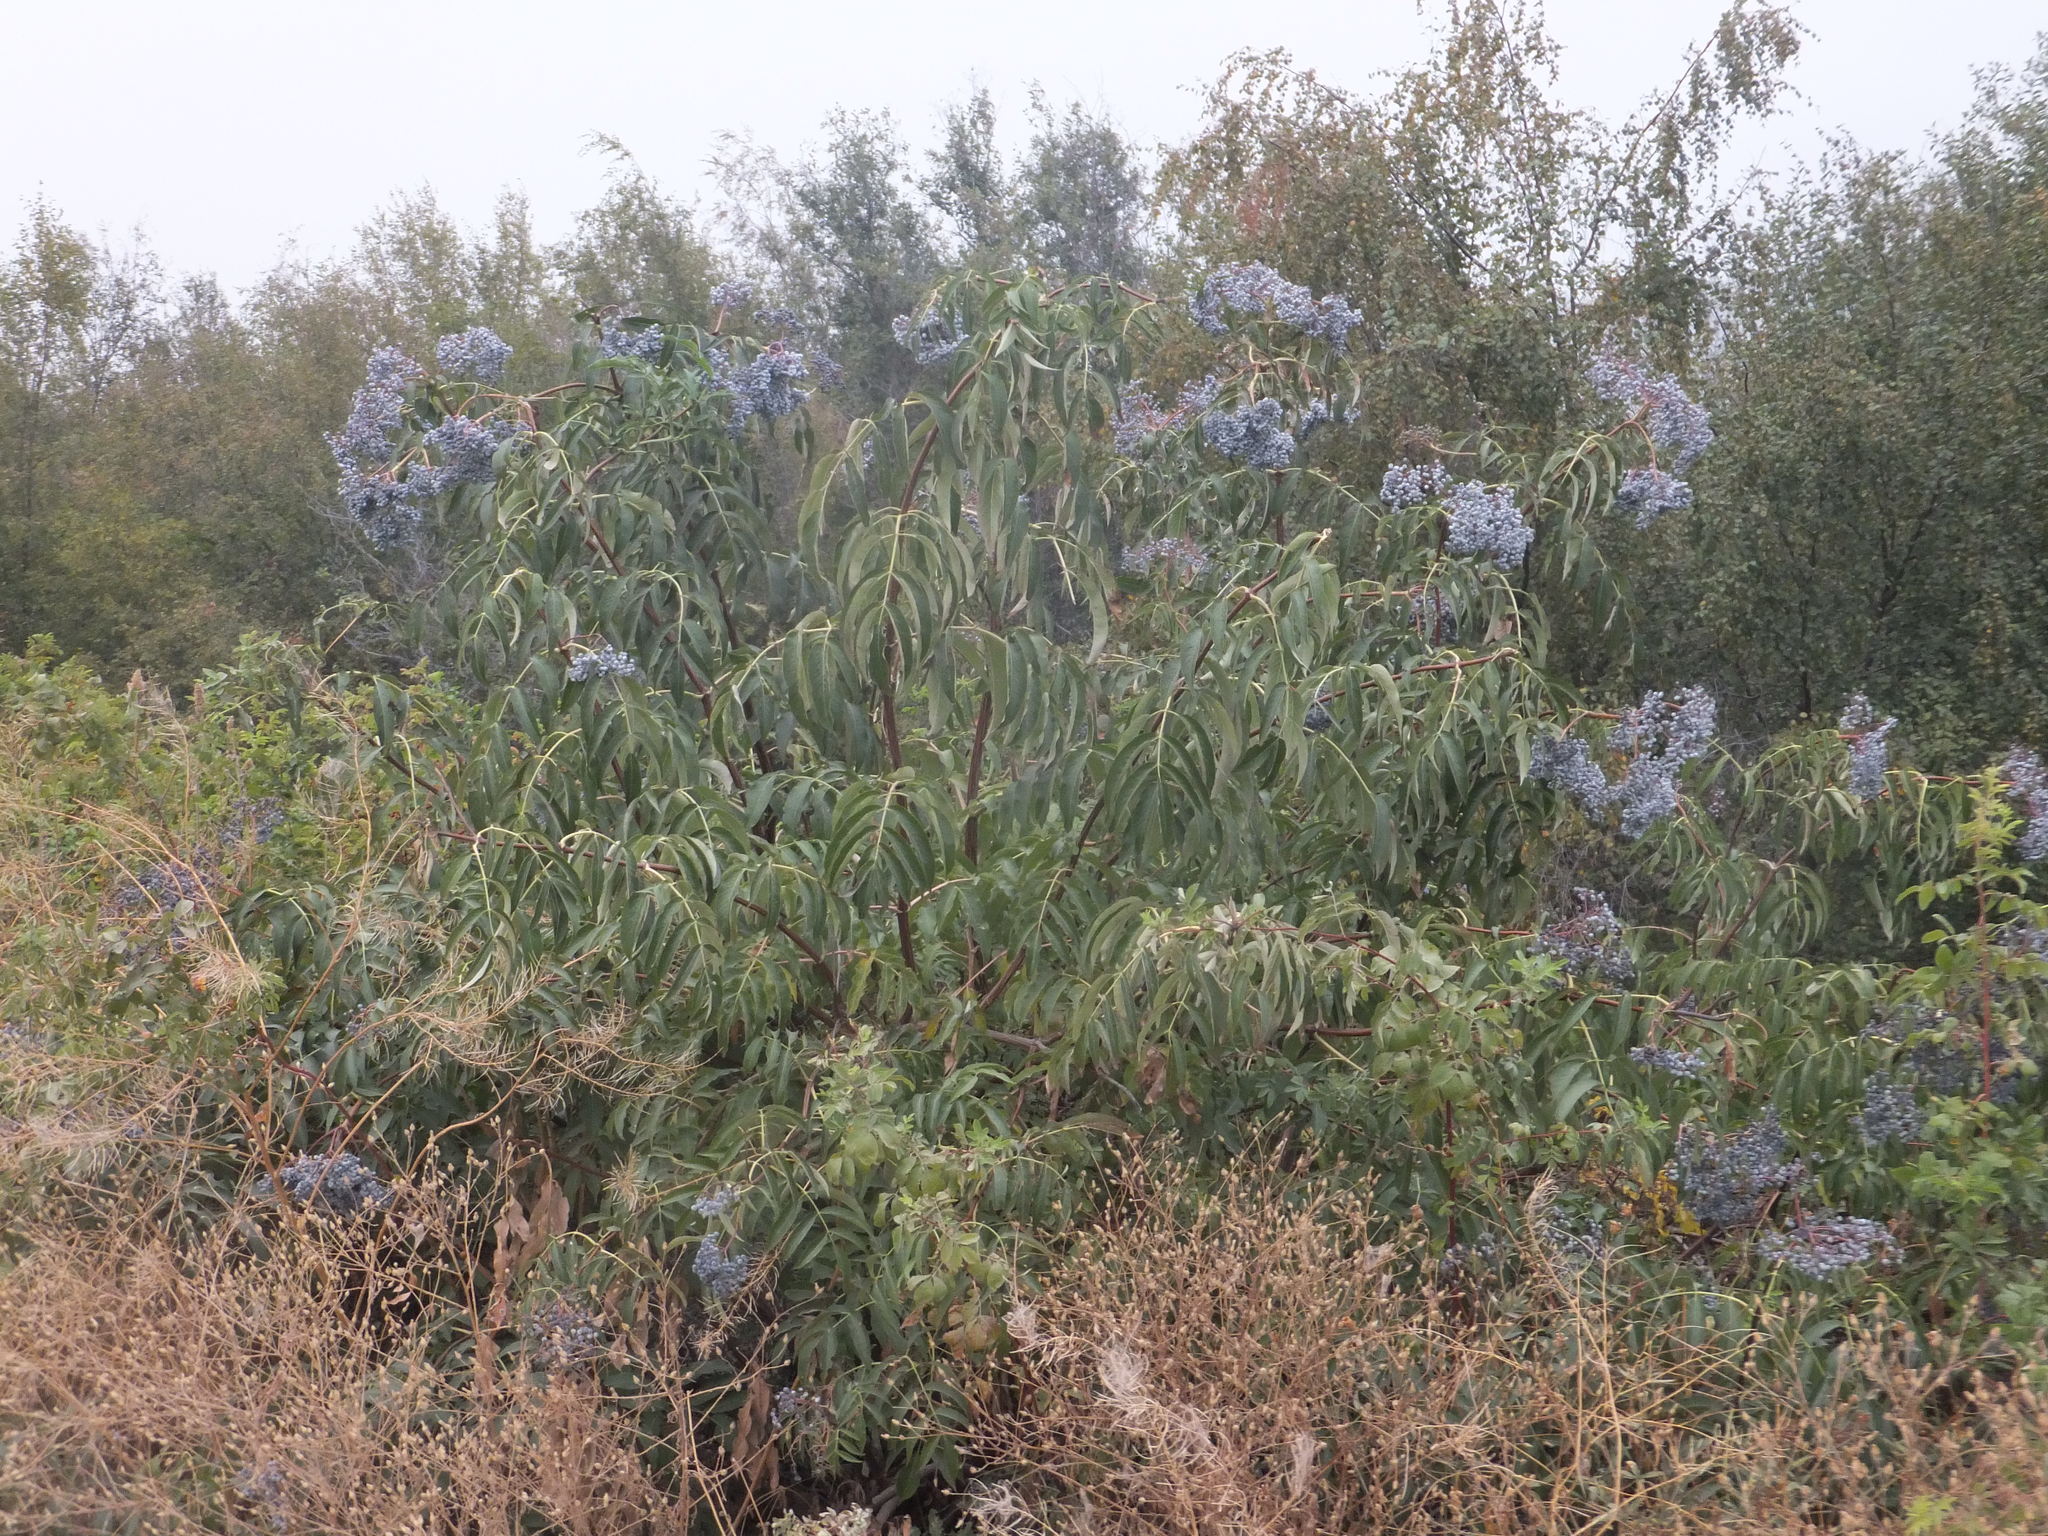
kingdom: Plantae
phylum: Tracheophyta
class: Magnoliopsida
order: Dipsacales
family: Viburnaceae
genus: Sambucus
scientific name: Sambucus cerulea
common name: Blue elder
